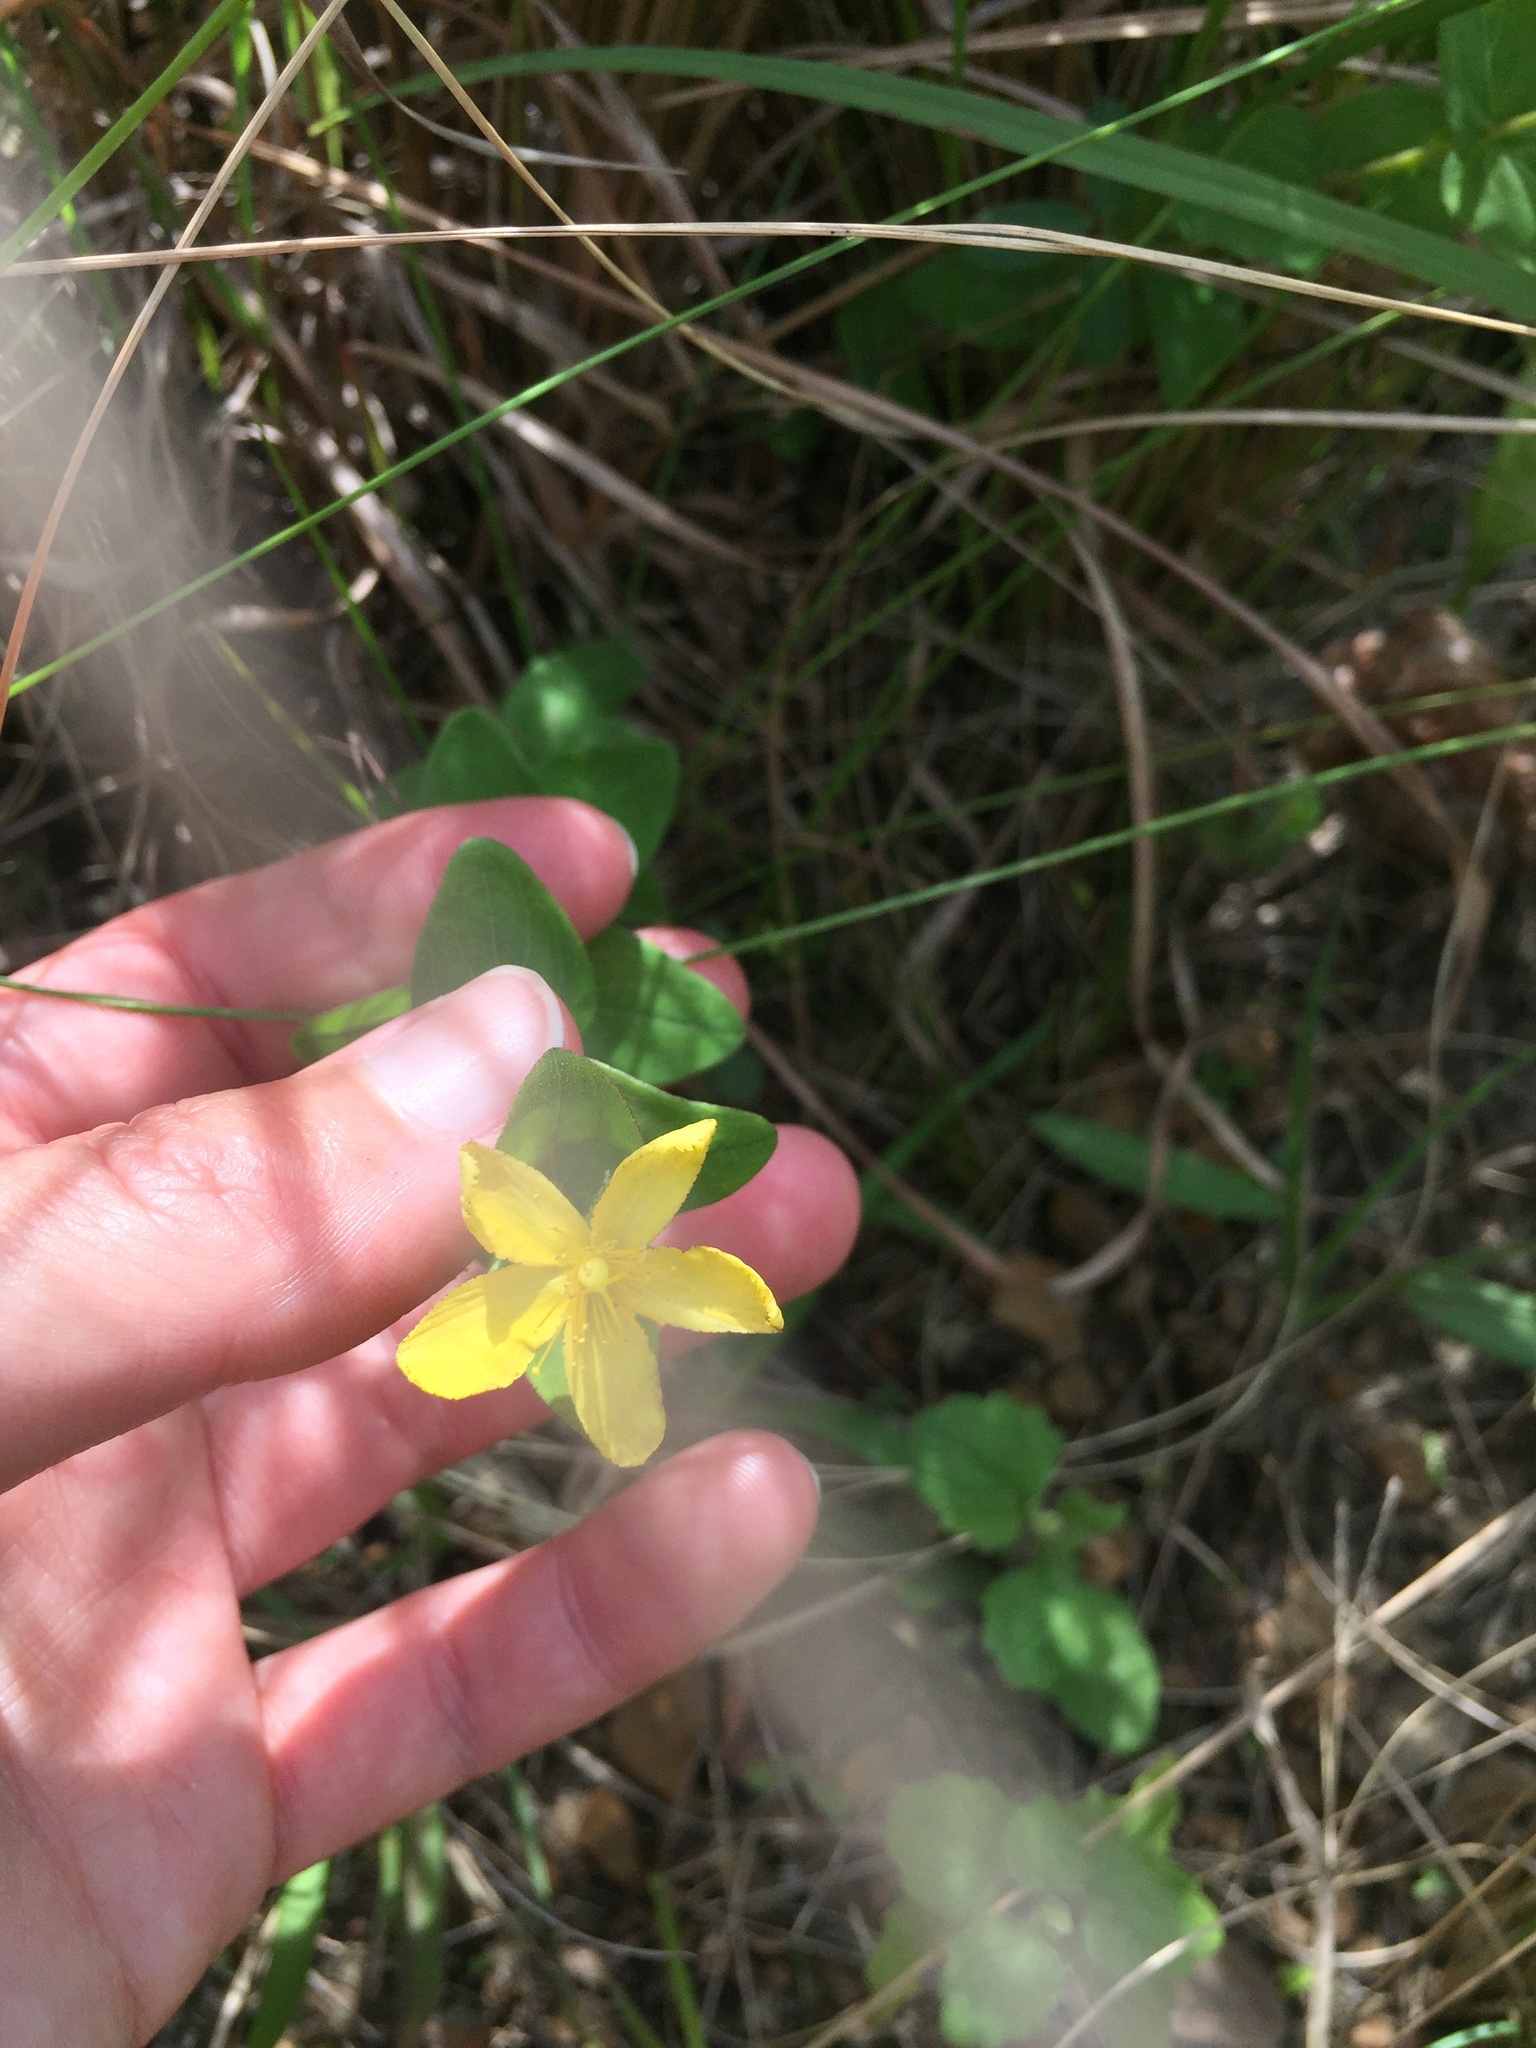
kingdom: Plantae
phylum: Tracheophyta
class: Magnoliopsida
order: Malpighiales
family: Hypericaceae
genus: Hypericum
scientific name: Hypericum aethiopicum
